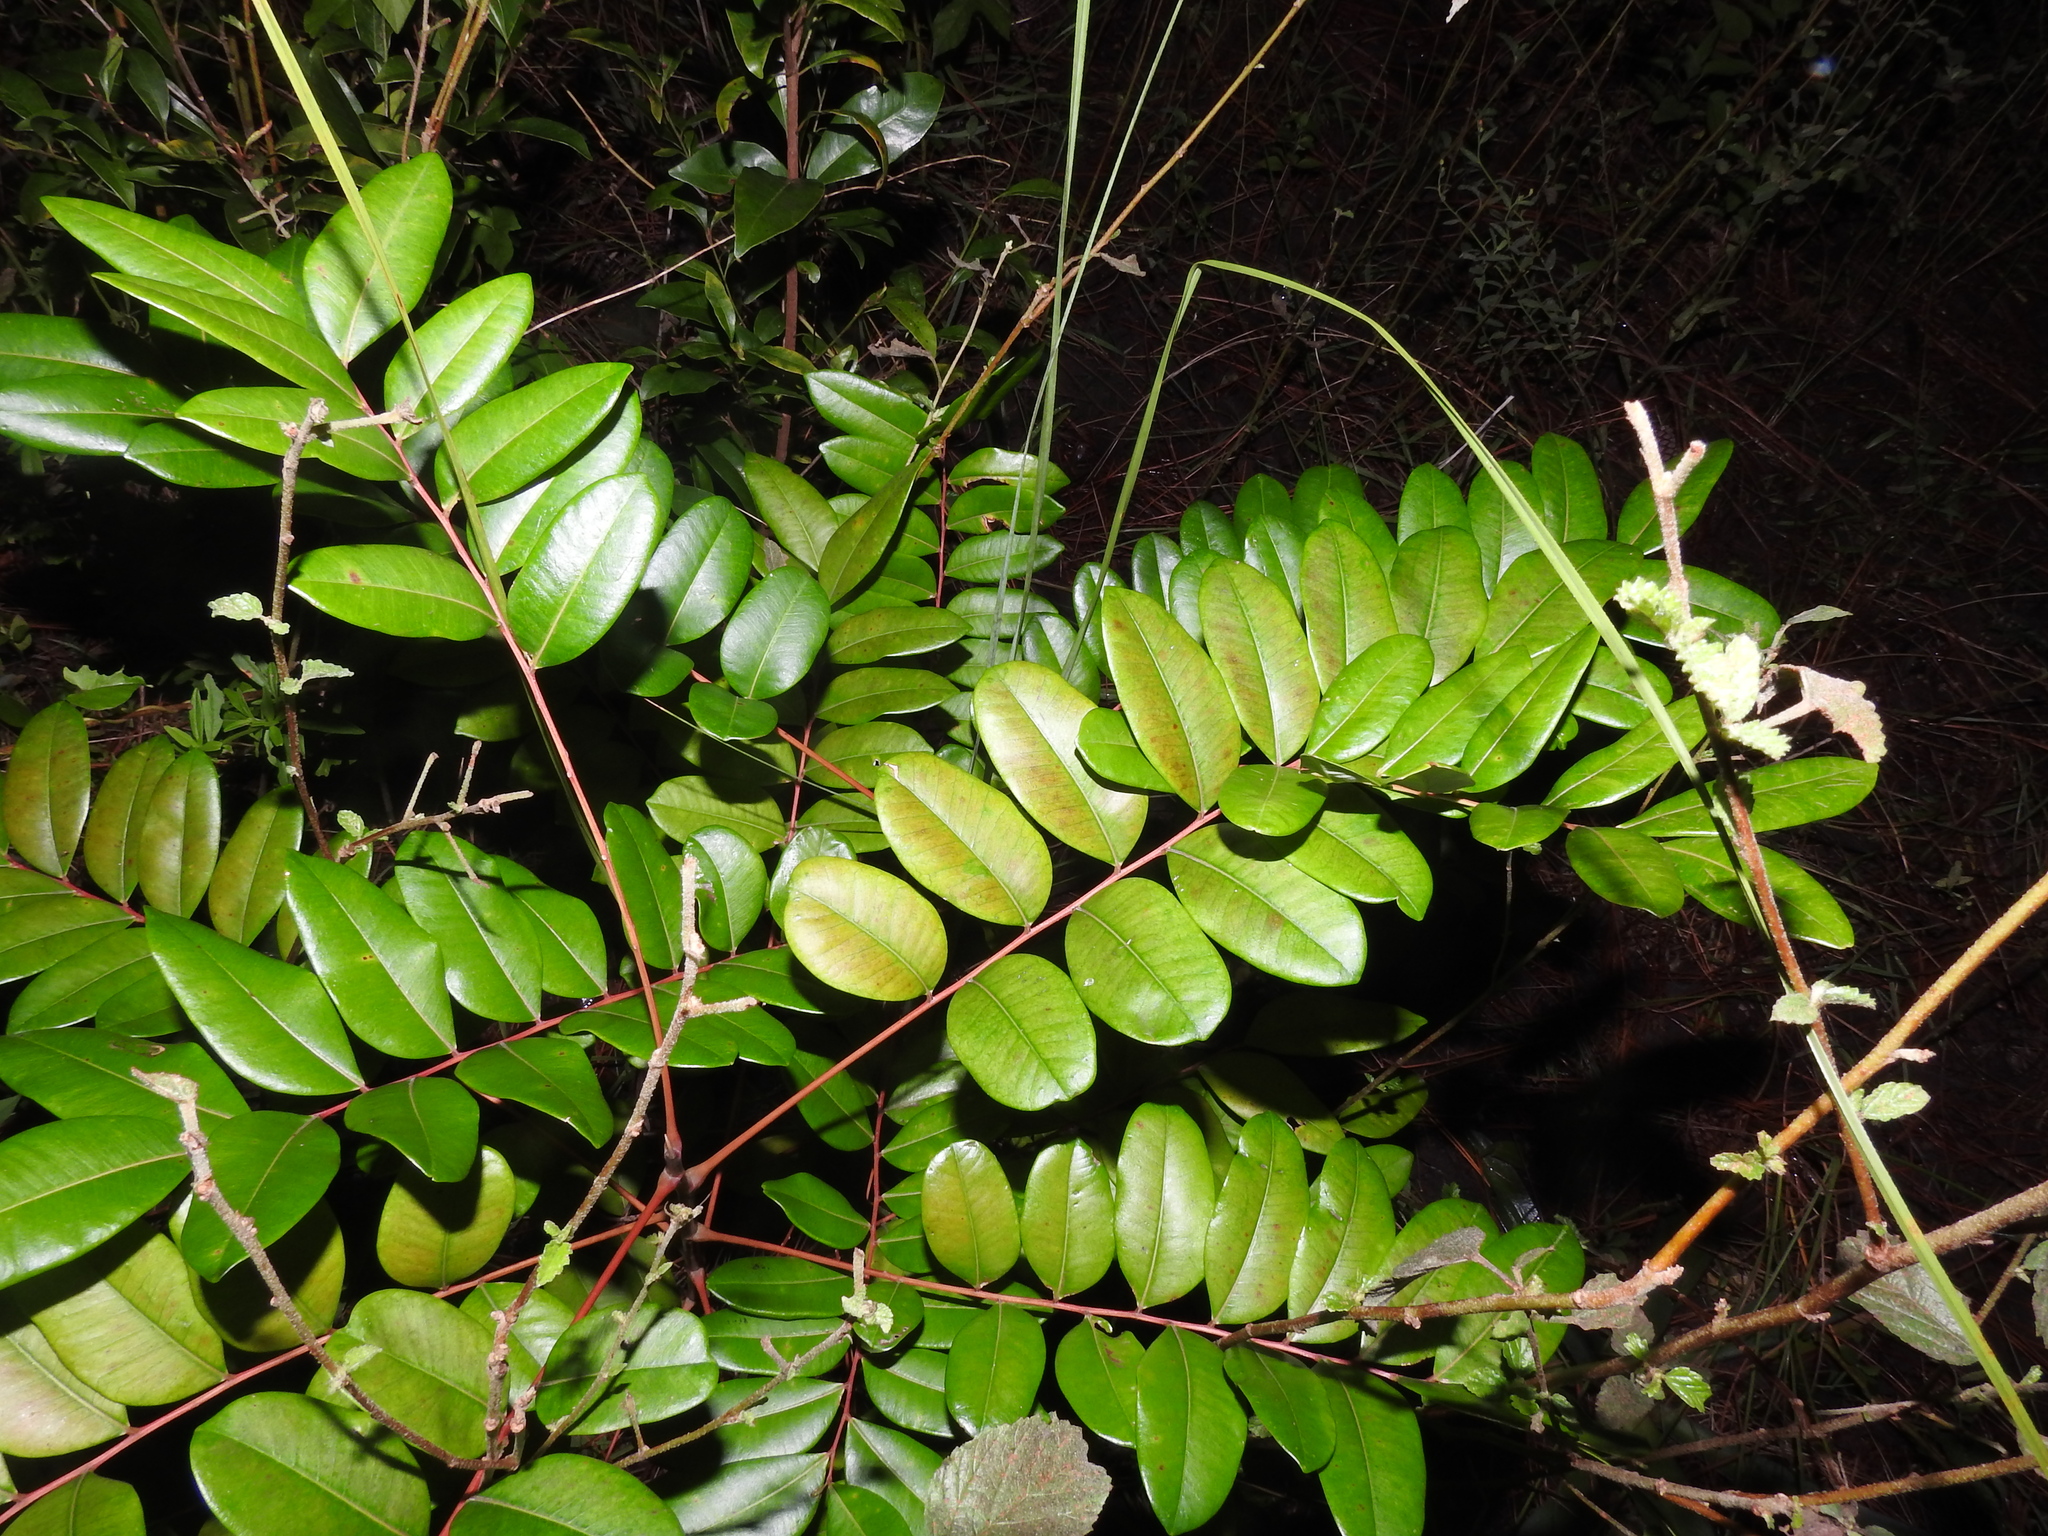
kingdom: Plantae
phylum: Tracheophyta
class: Magnoliopsida
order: Sapindales
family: Simaroubaceae
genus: Simarouba
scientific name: Simarouba glauca
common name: Dysentery-bark
